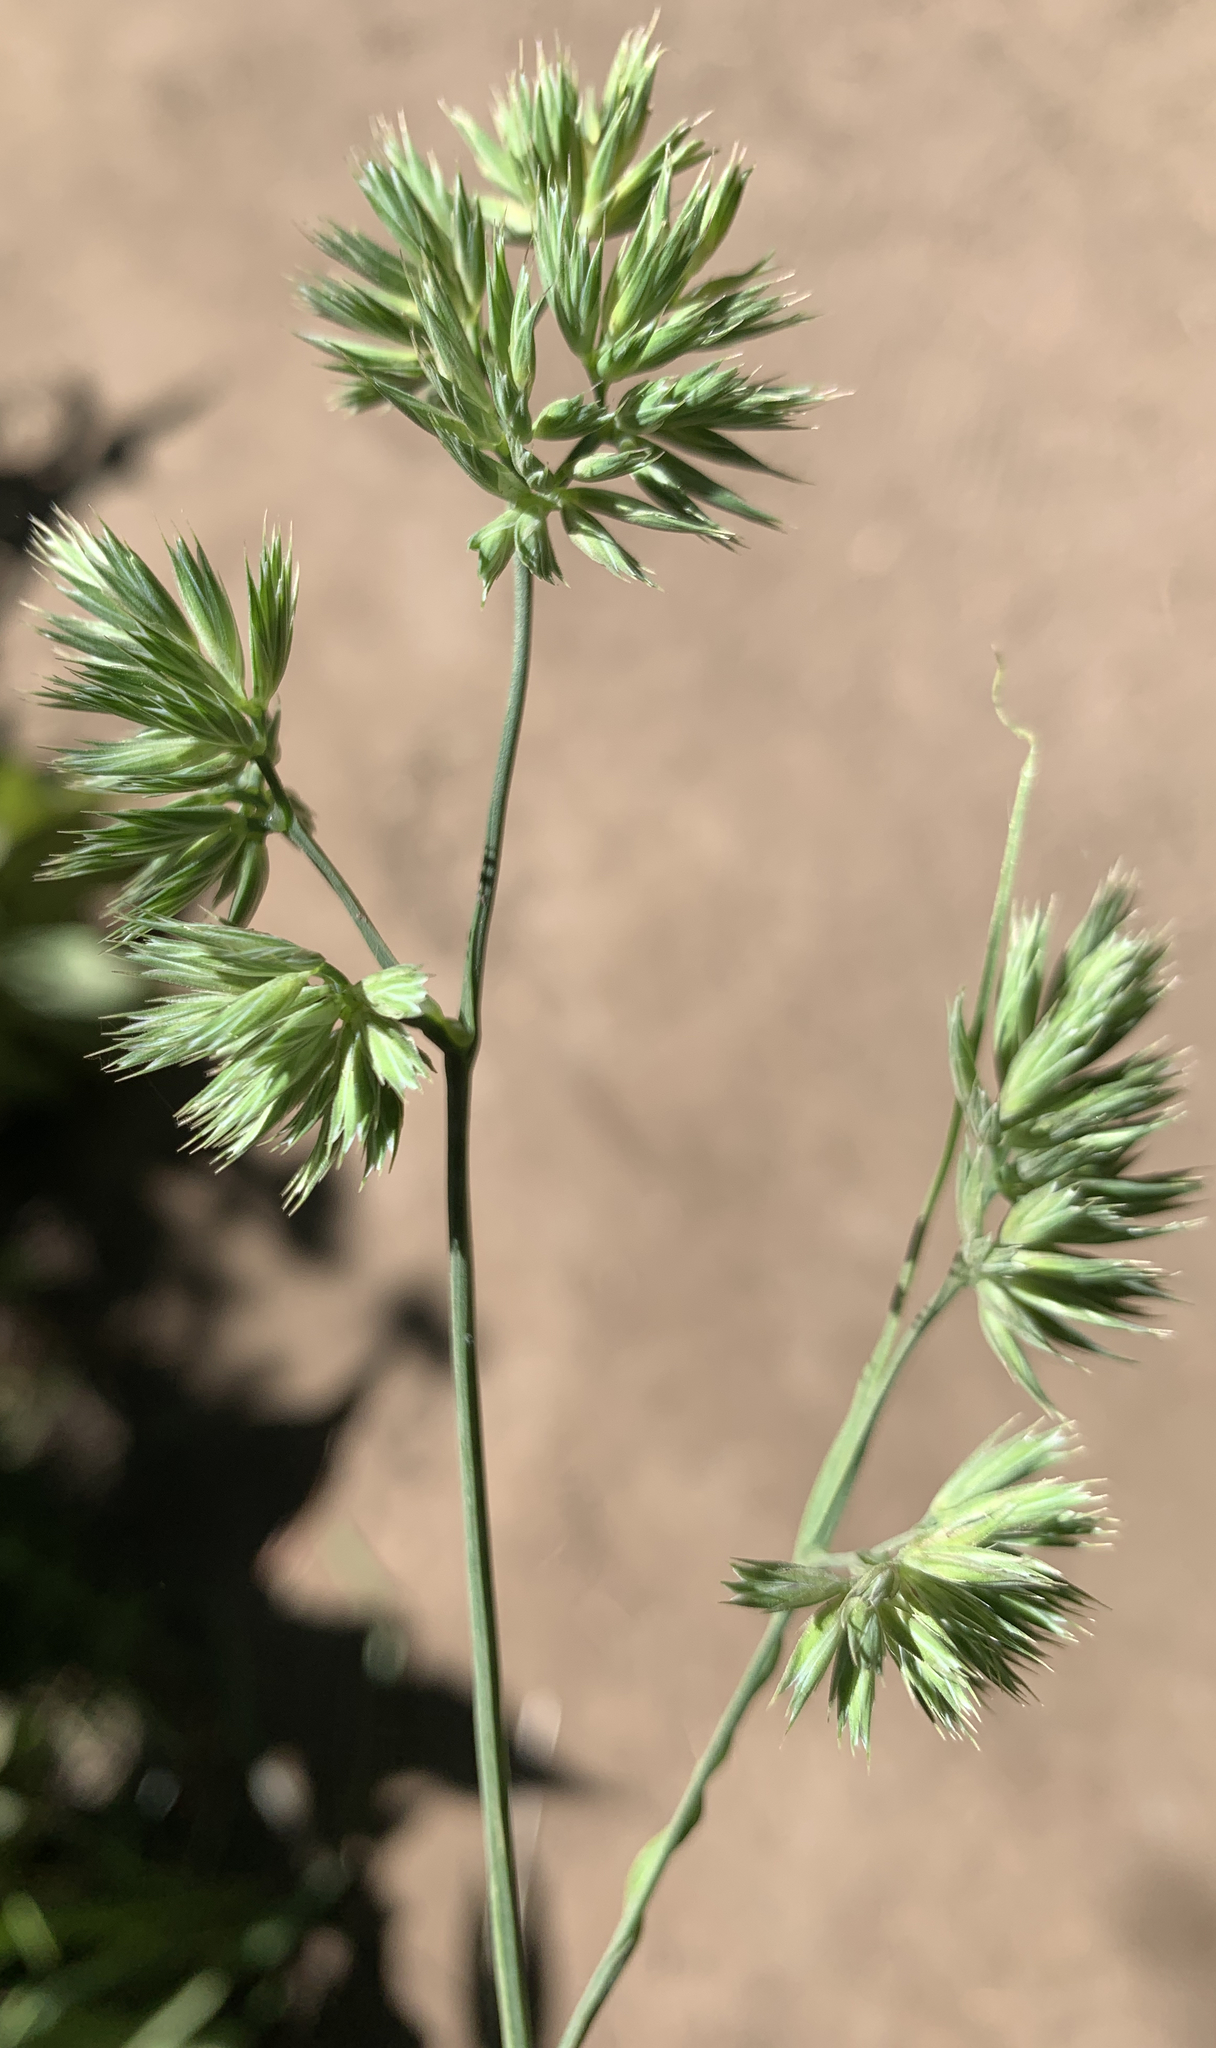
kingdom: Plantae
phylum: Tracheophyta
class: Liliopsida
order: Poales
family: Poaceae
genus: Dactylis
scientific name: Dactylis glomerata
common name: Orchardgrass
